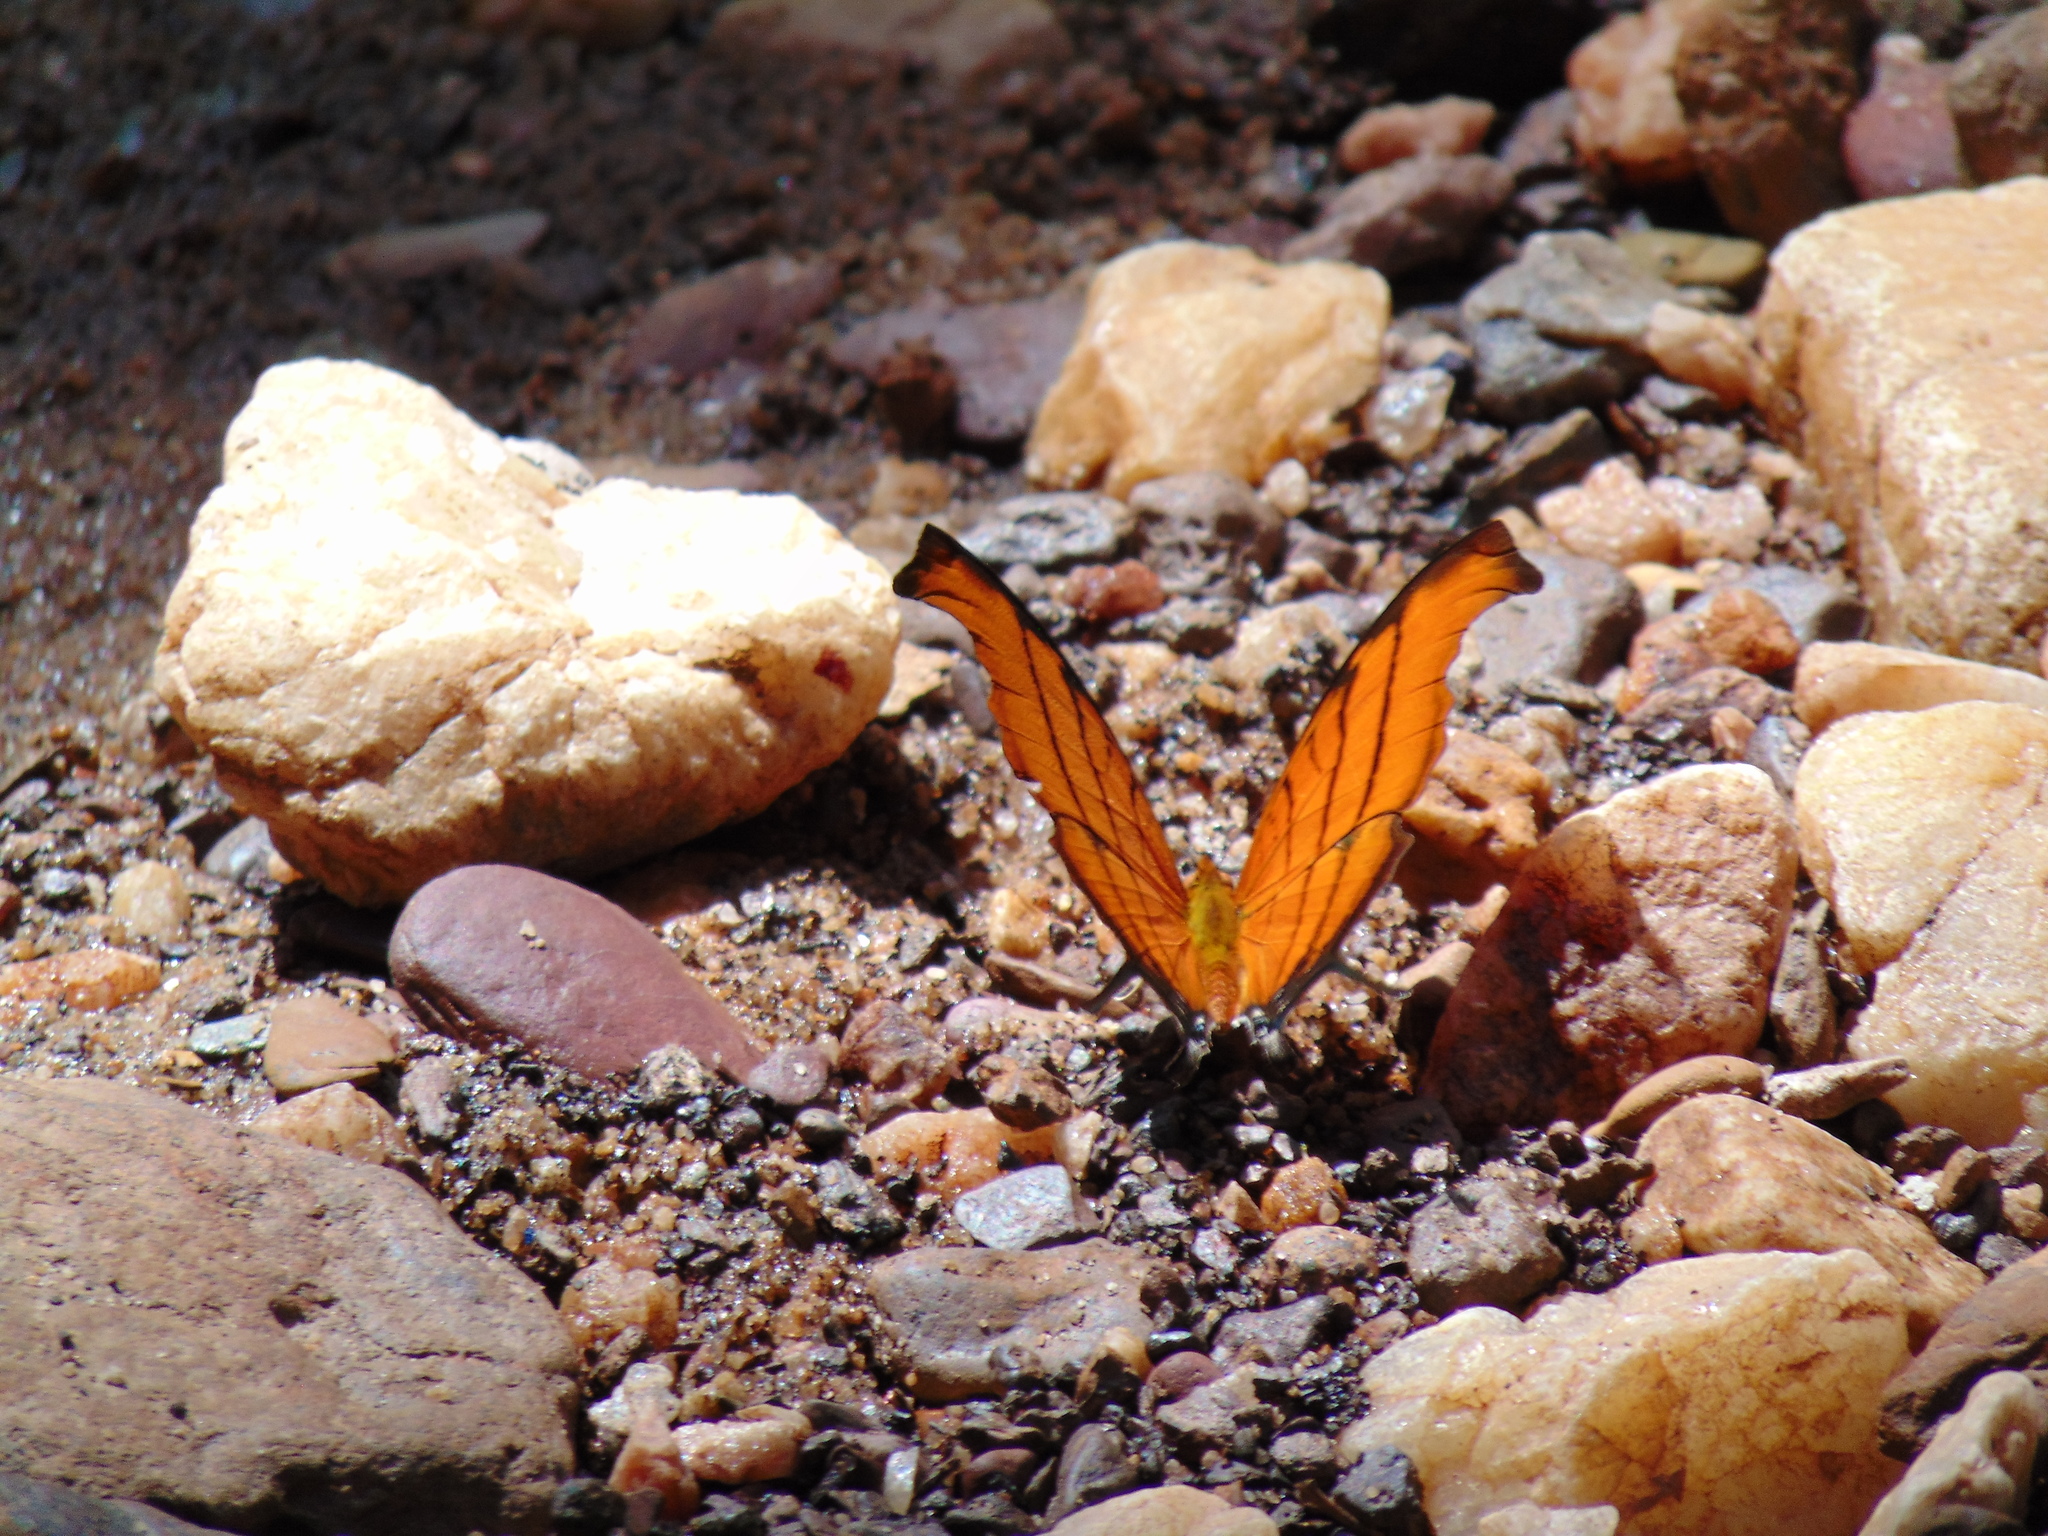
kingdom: Animalia
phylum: Arthropoda
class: Insecta
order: Lepidoptera
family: Nymphalidae
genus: Marpesia
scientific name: Marpesia petreus
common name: Red dagger wing
